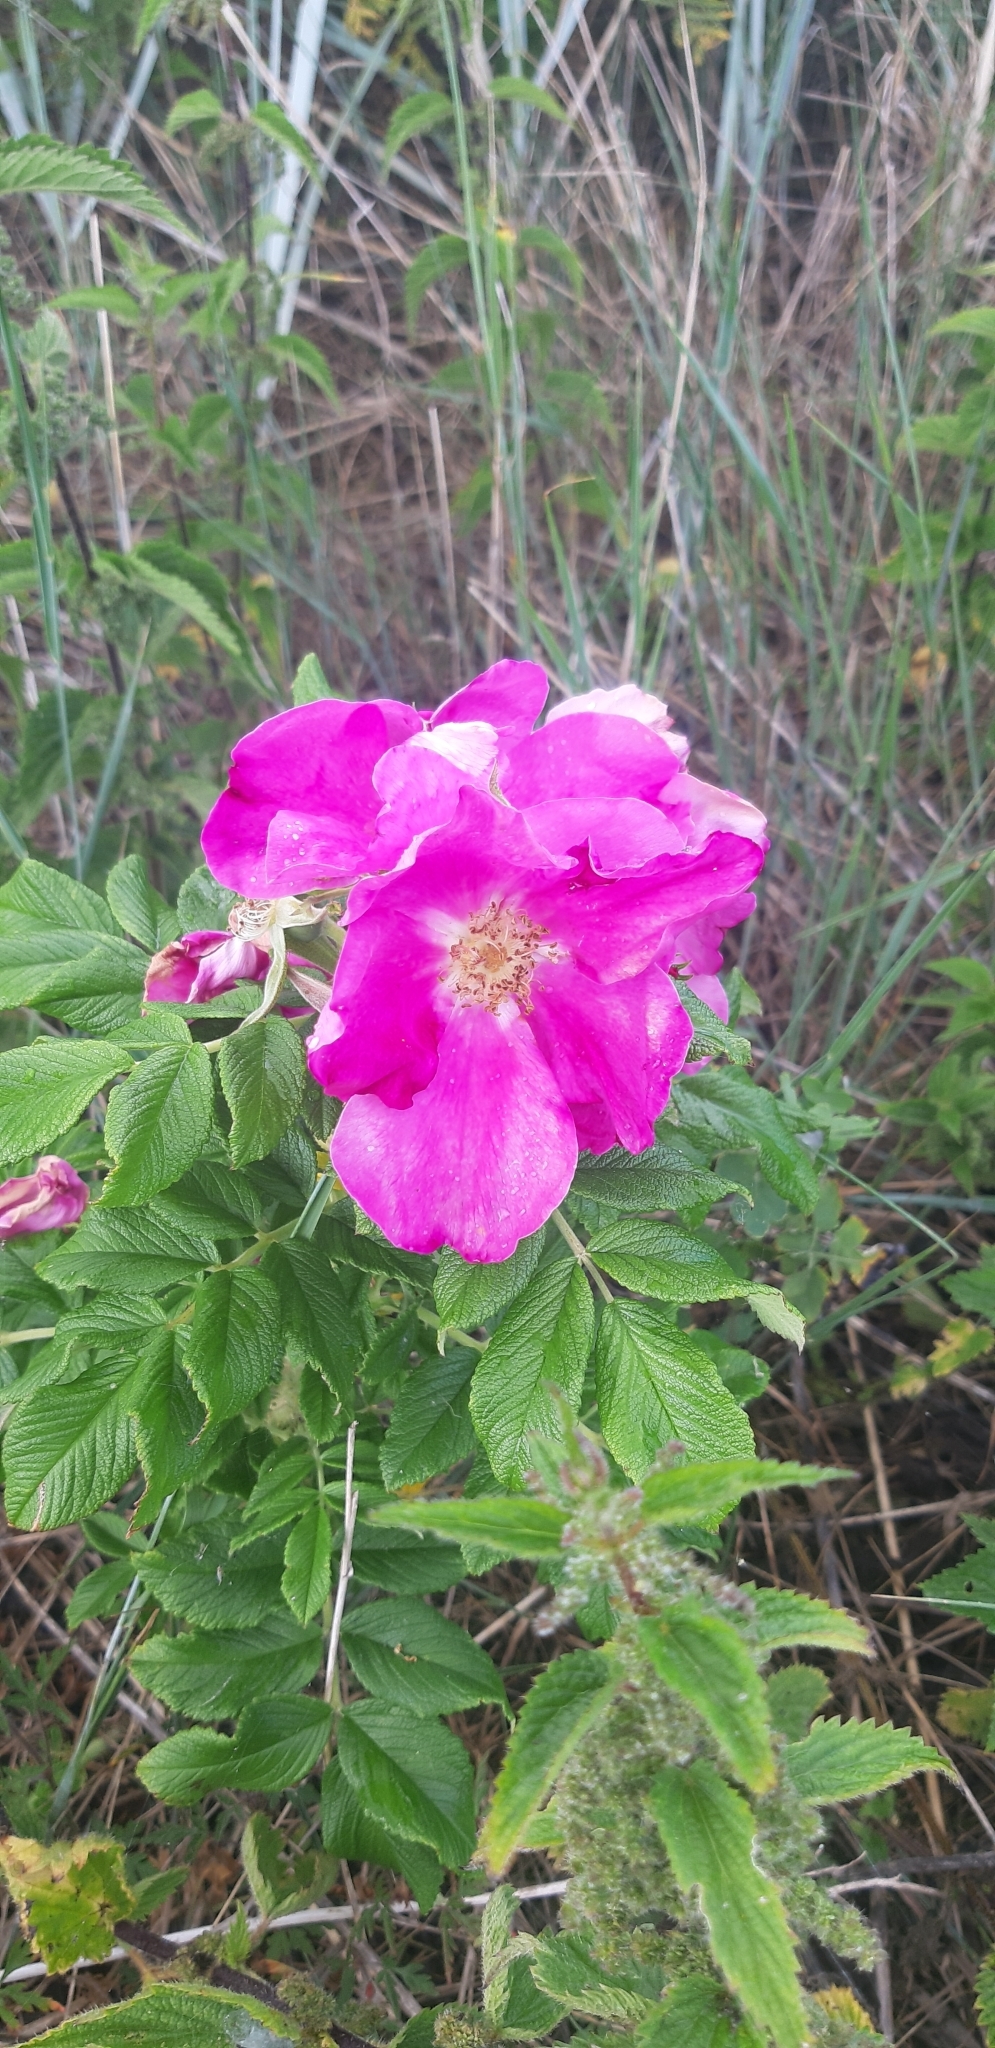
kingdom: Plantae
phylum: Tracheophyta
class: Magnoliopsida
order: Rosales
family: Rosaceae
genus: Rosa
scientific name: Rosa rugosa
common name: Japanese rose
